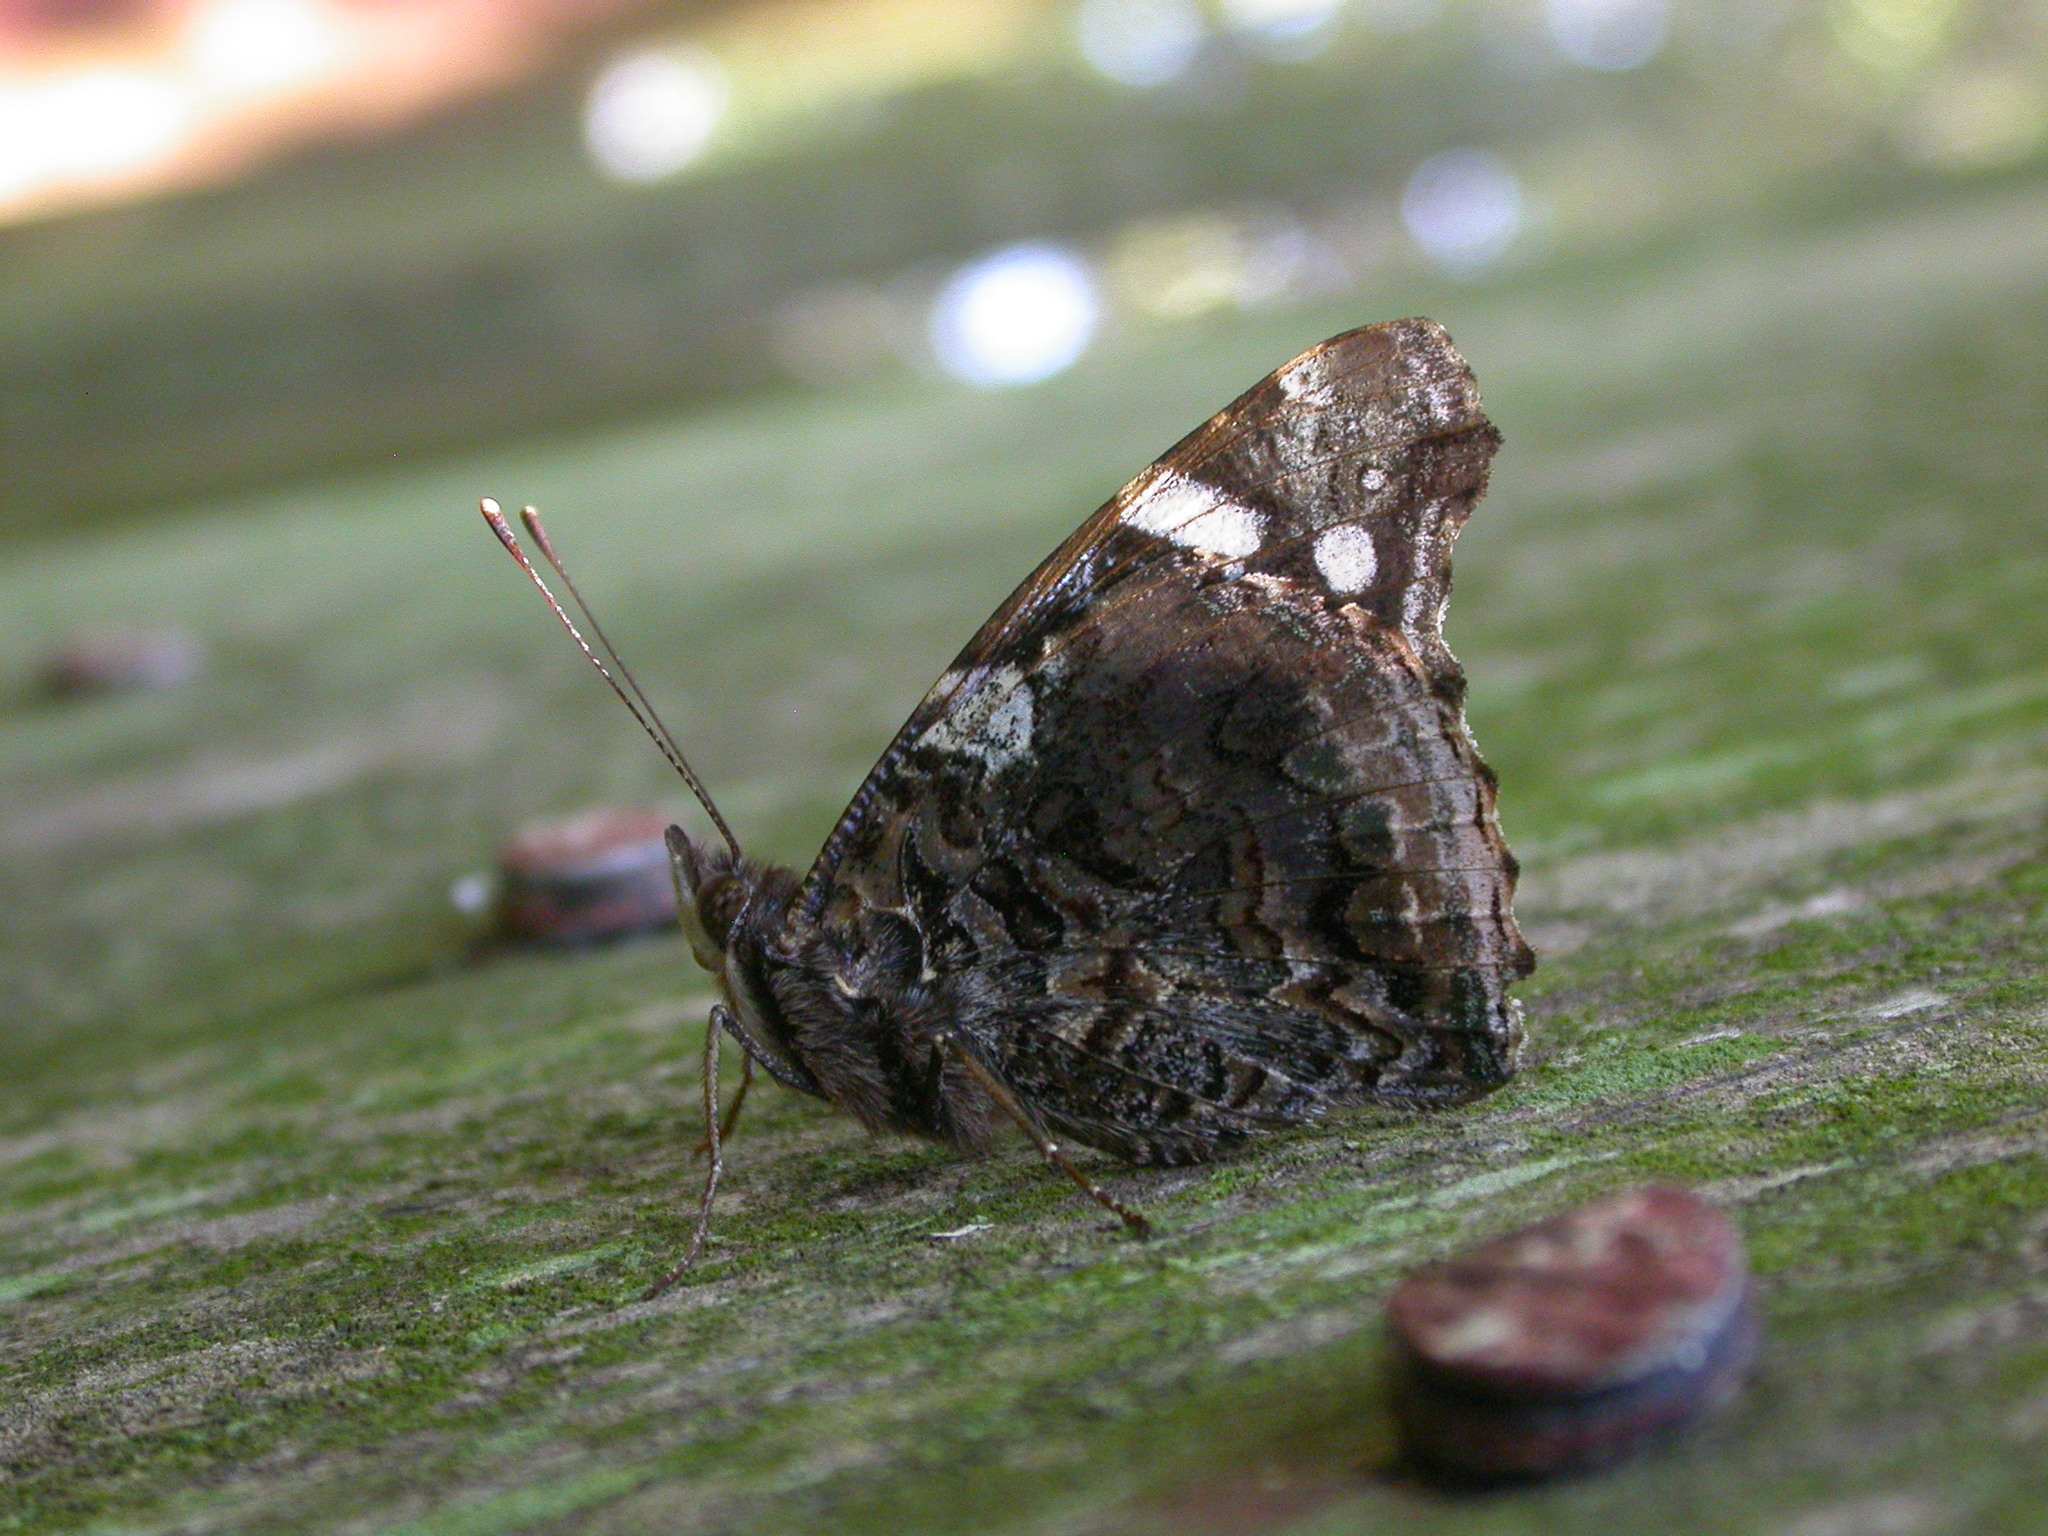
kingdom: Animalia
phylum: Arthropoda
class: Insecta
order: Lepidoptera
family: Nymphalidae
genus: Vanessa
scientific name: Vanessa atalanta
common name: Red admiral
